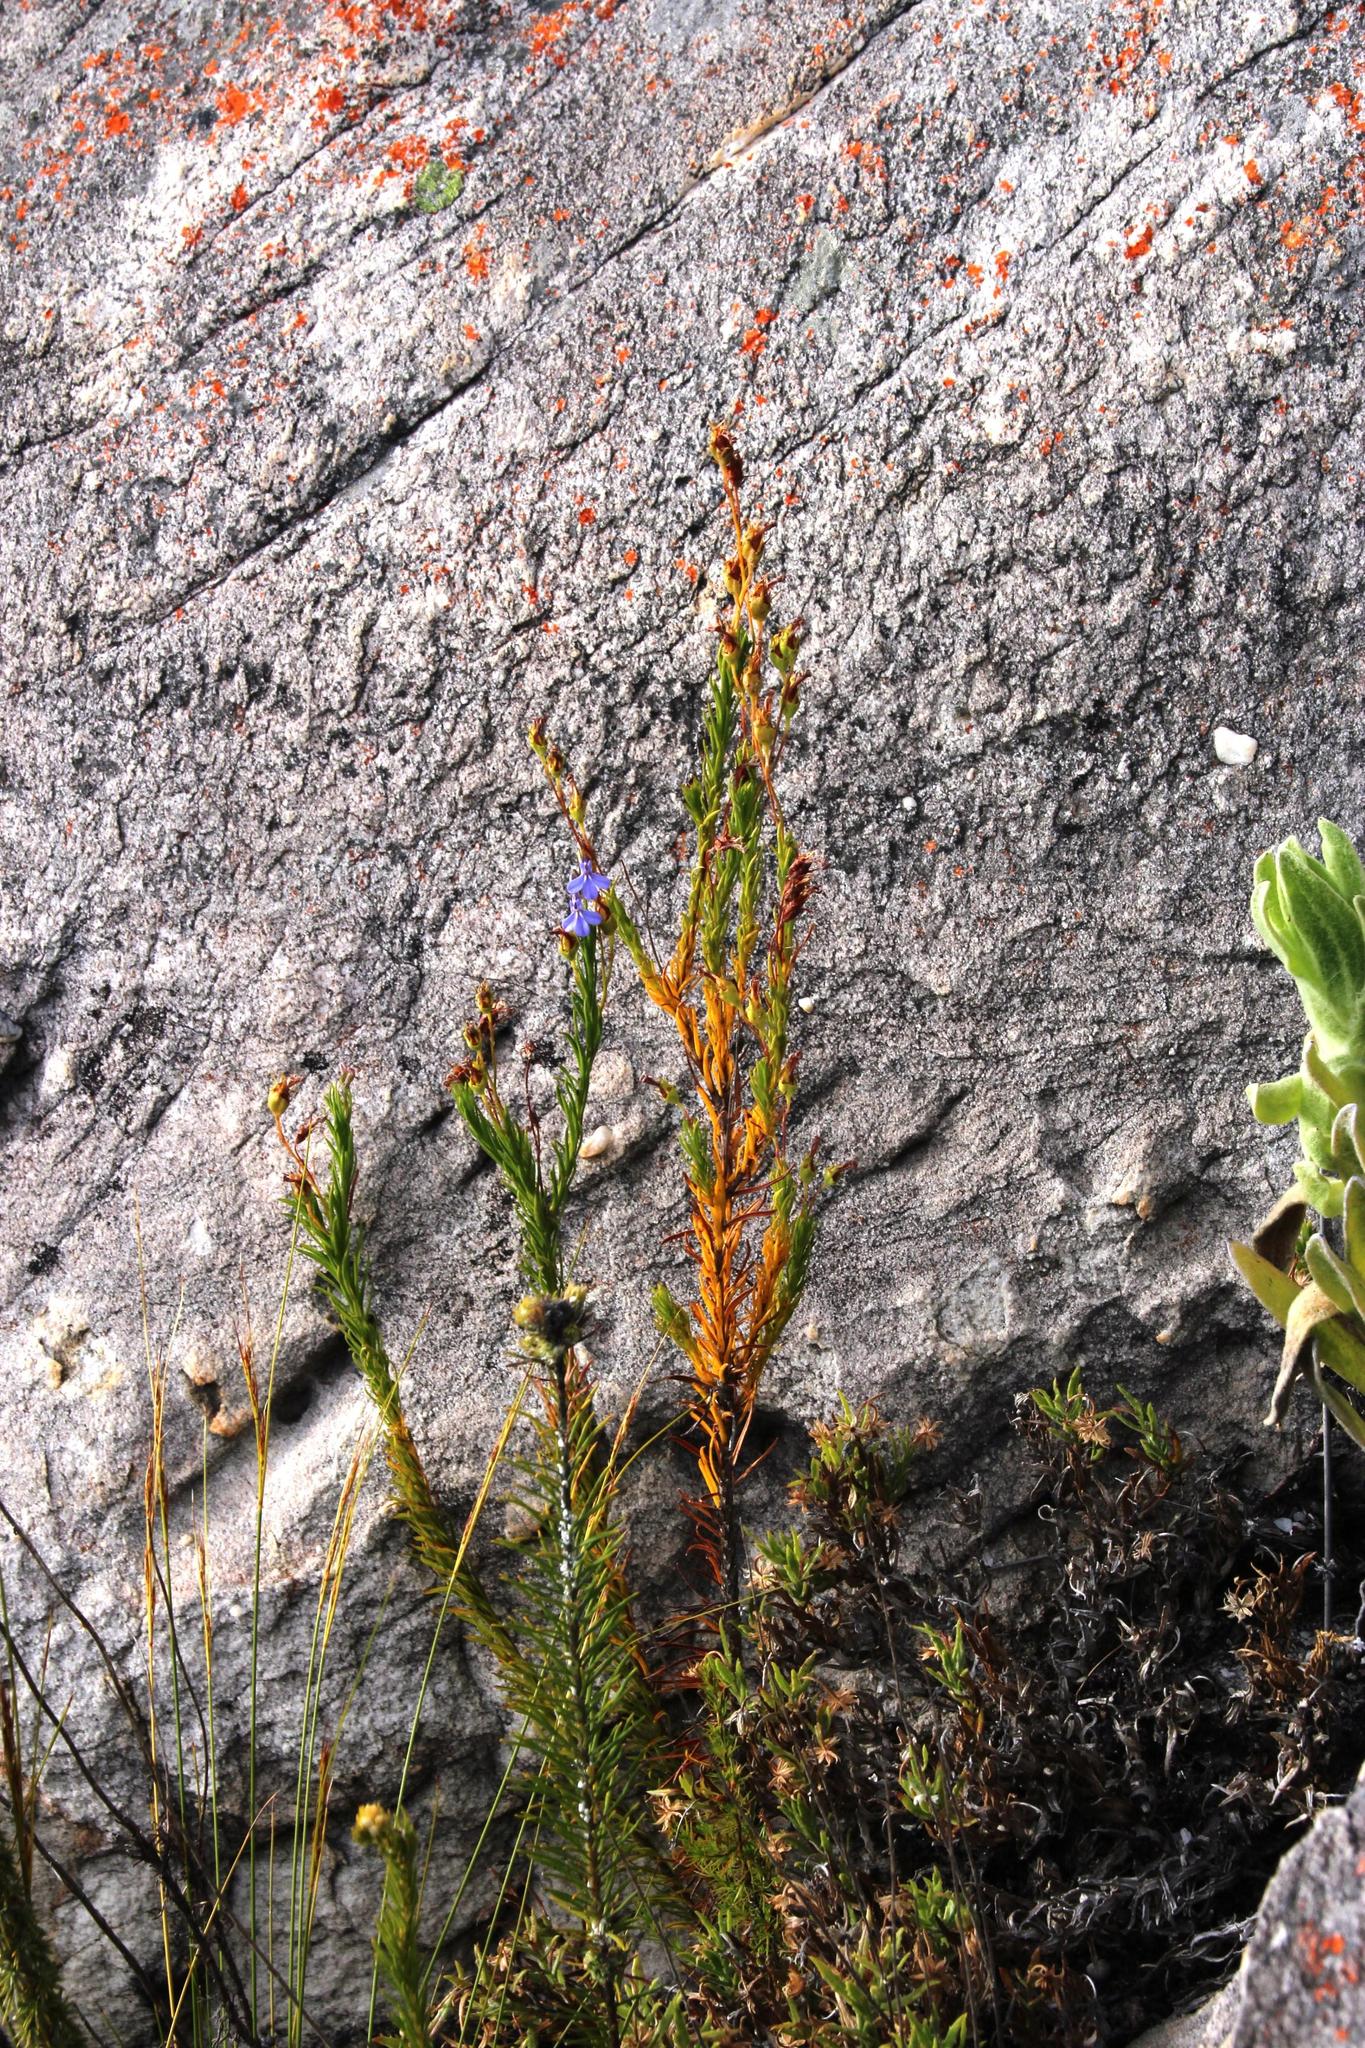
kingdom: Plantae
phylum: Tracheophyta
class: Magnoliopsida
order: Asterales
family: Campanulaceae
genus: Lobelia
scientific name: Lobelia pinifolia
